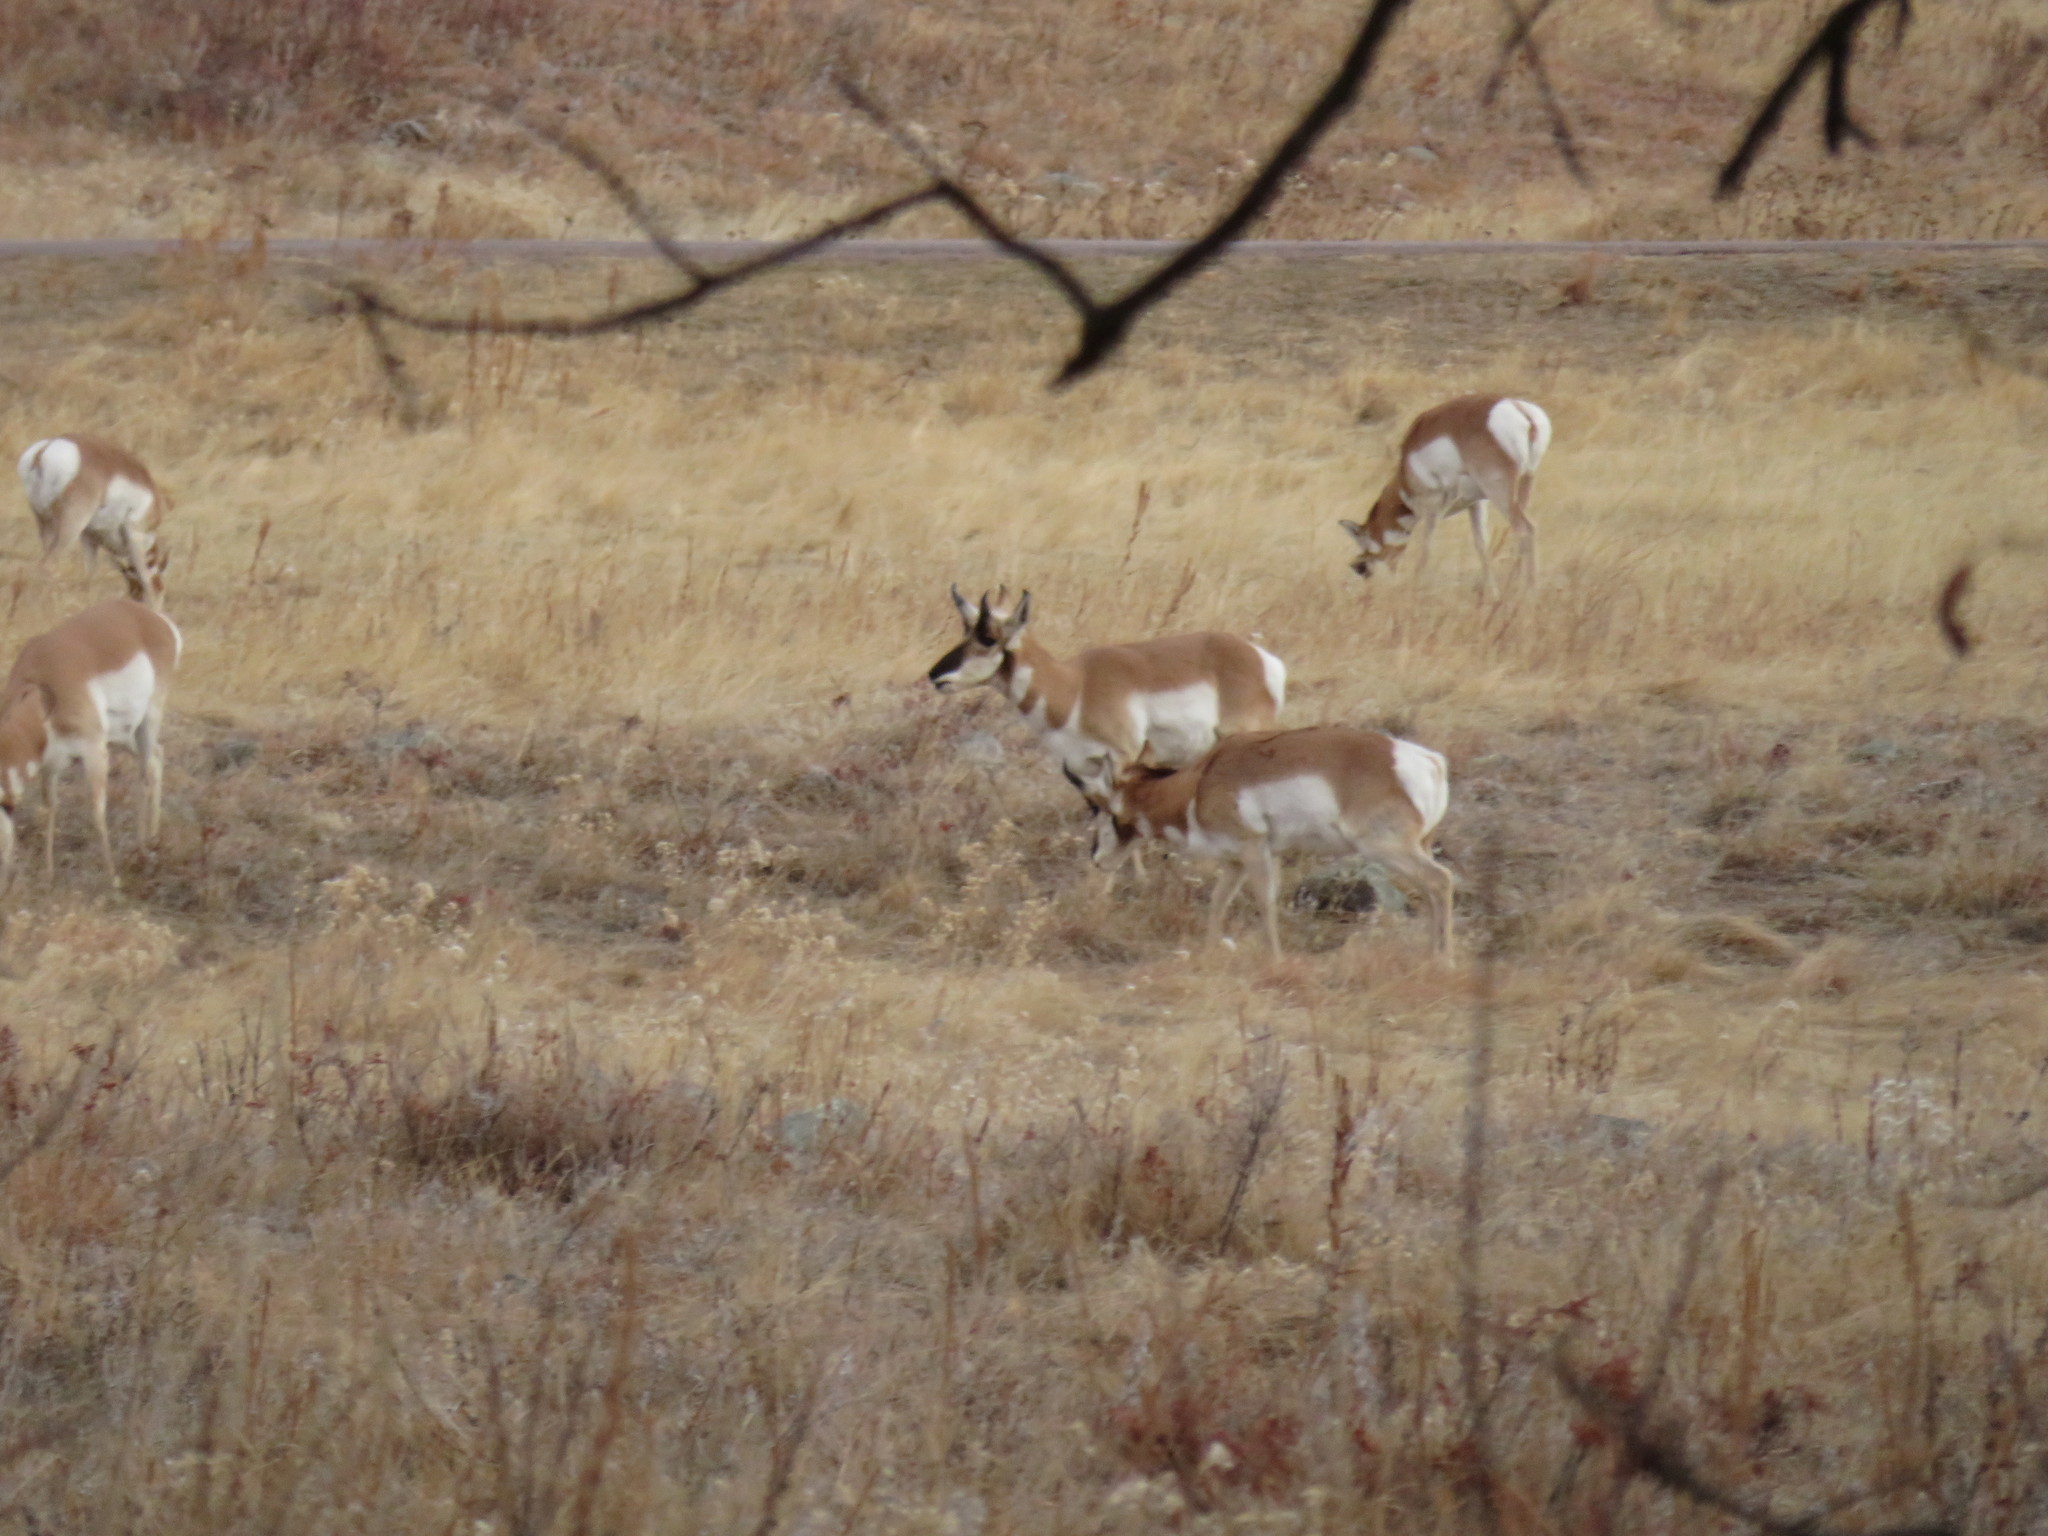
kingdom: Animalia
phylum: Chordata
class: Mammalia
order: Artiodactyla
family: Antilocapridae
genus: Antilocapra
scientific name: Antilocapra americana
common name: Pronghorn
